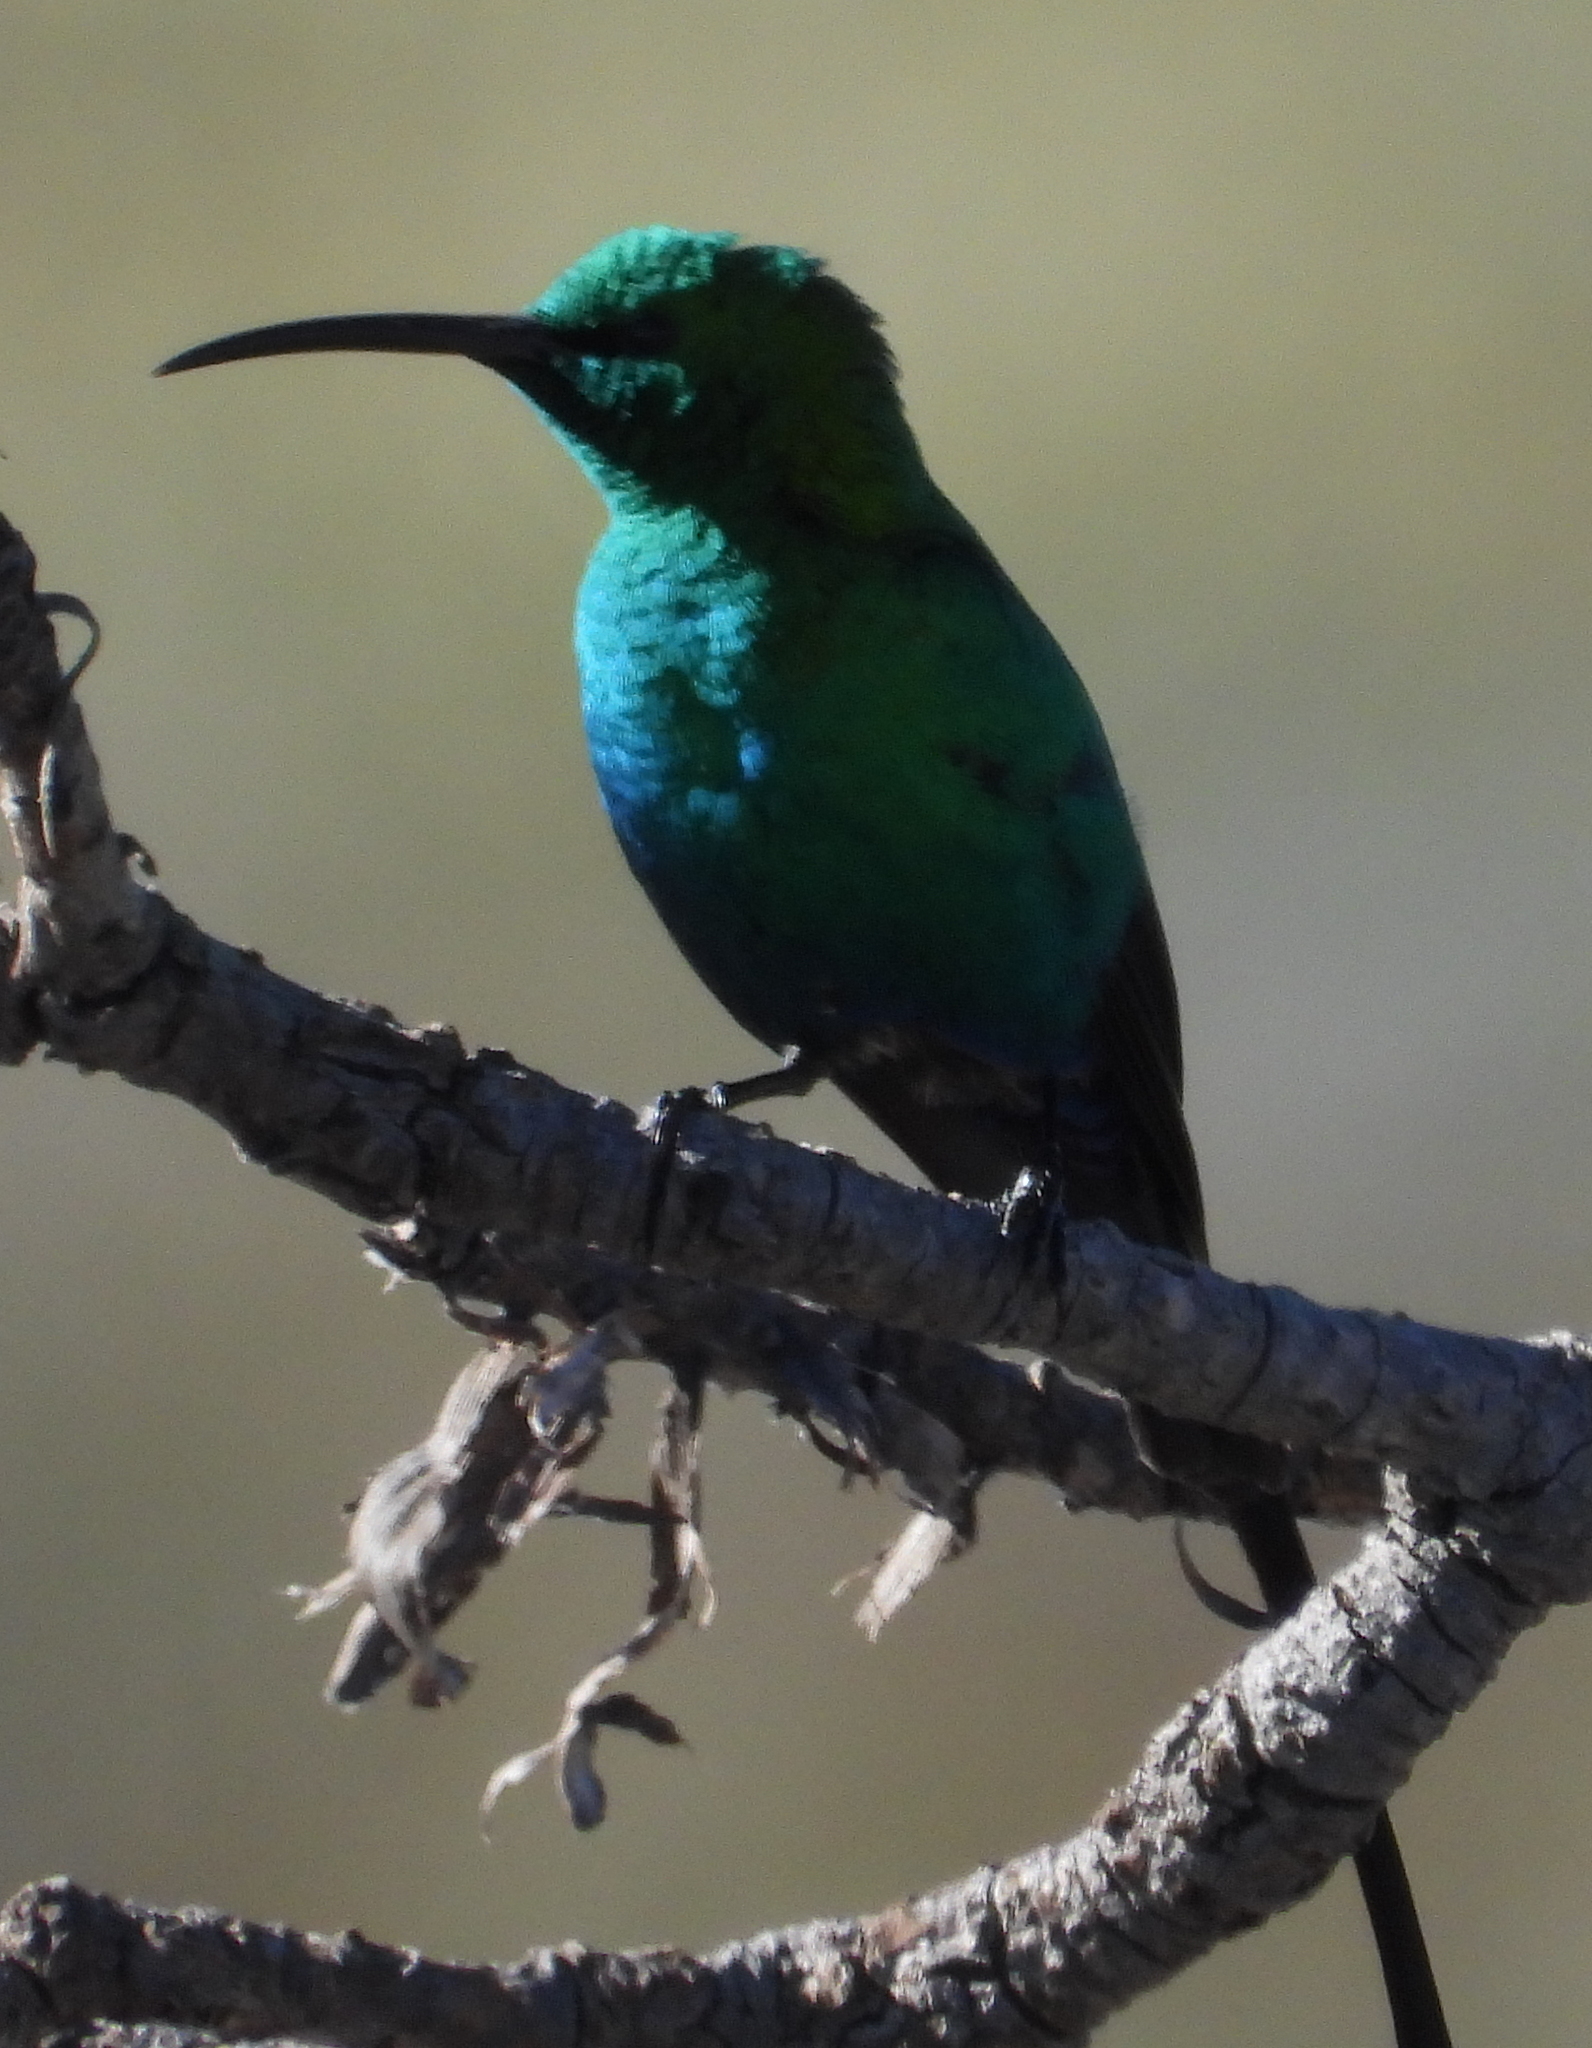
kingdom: Animalia
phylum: Chordata
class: Aves
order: Passeriformes
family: Nectariniidae
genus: Nectarinia
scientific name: Nectarinia famosa
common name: Malachite sunbird
